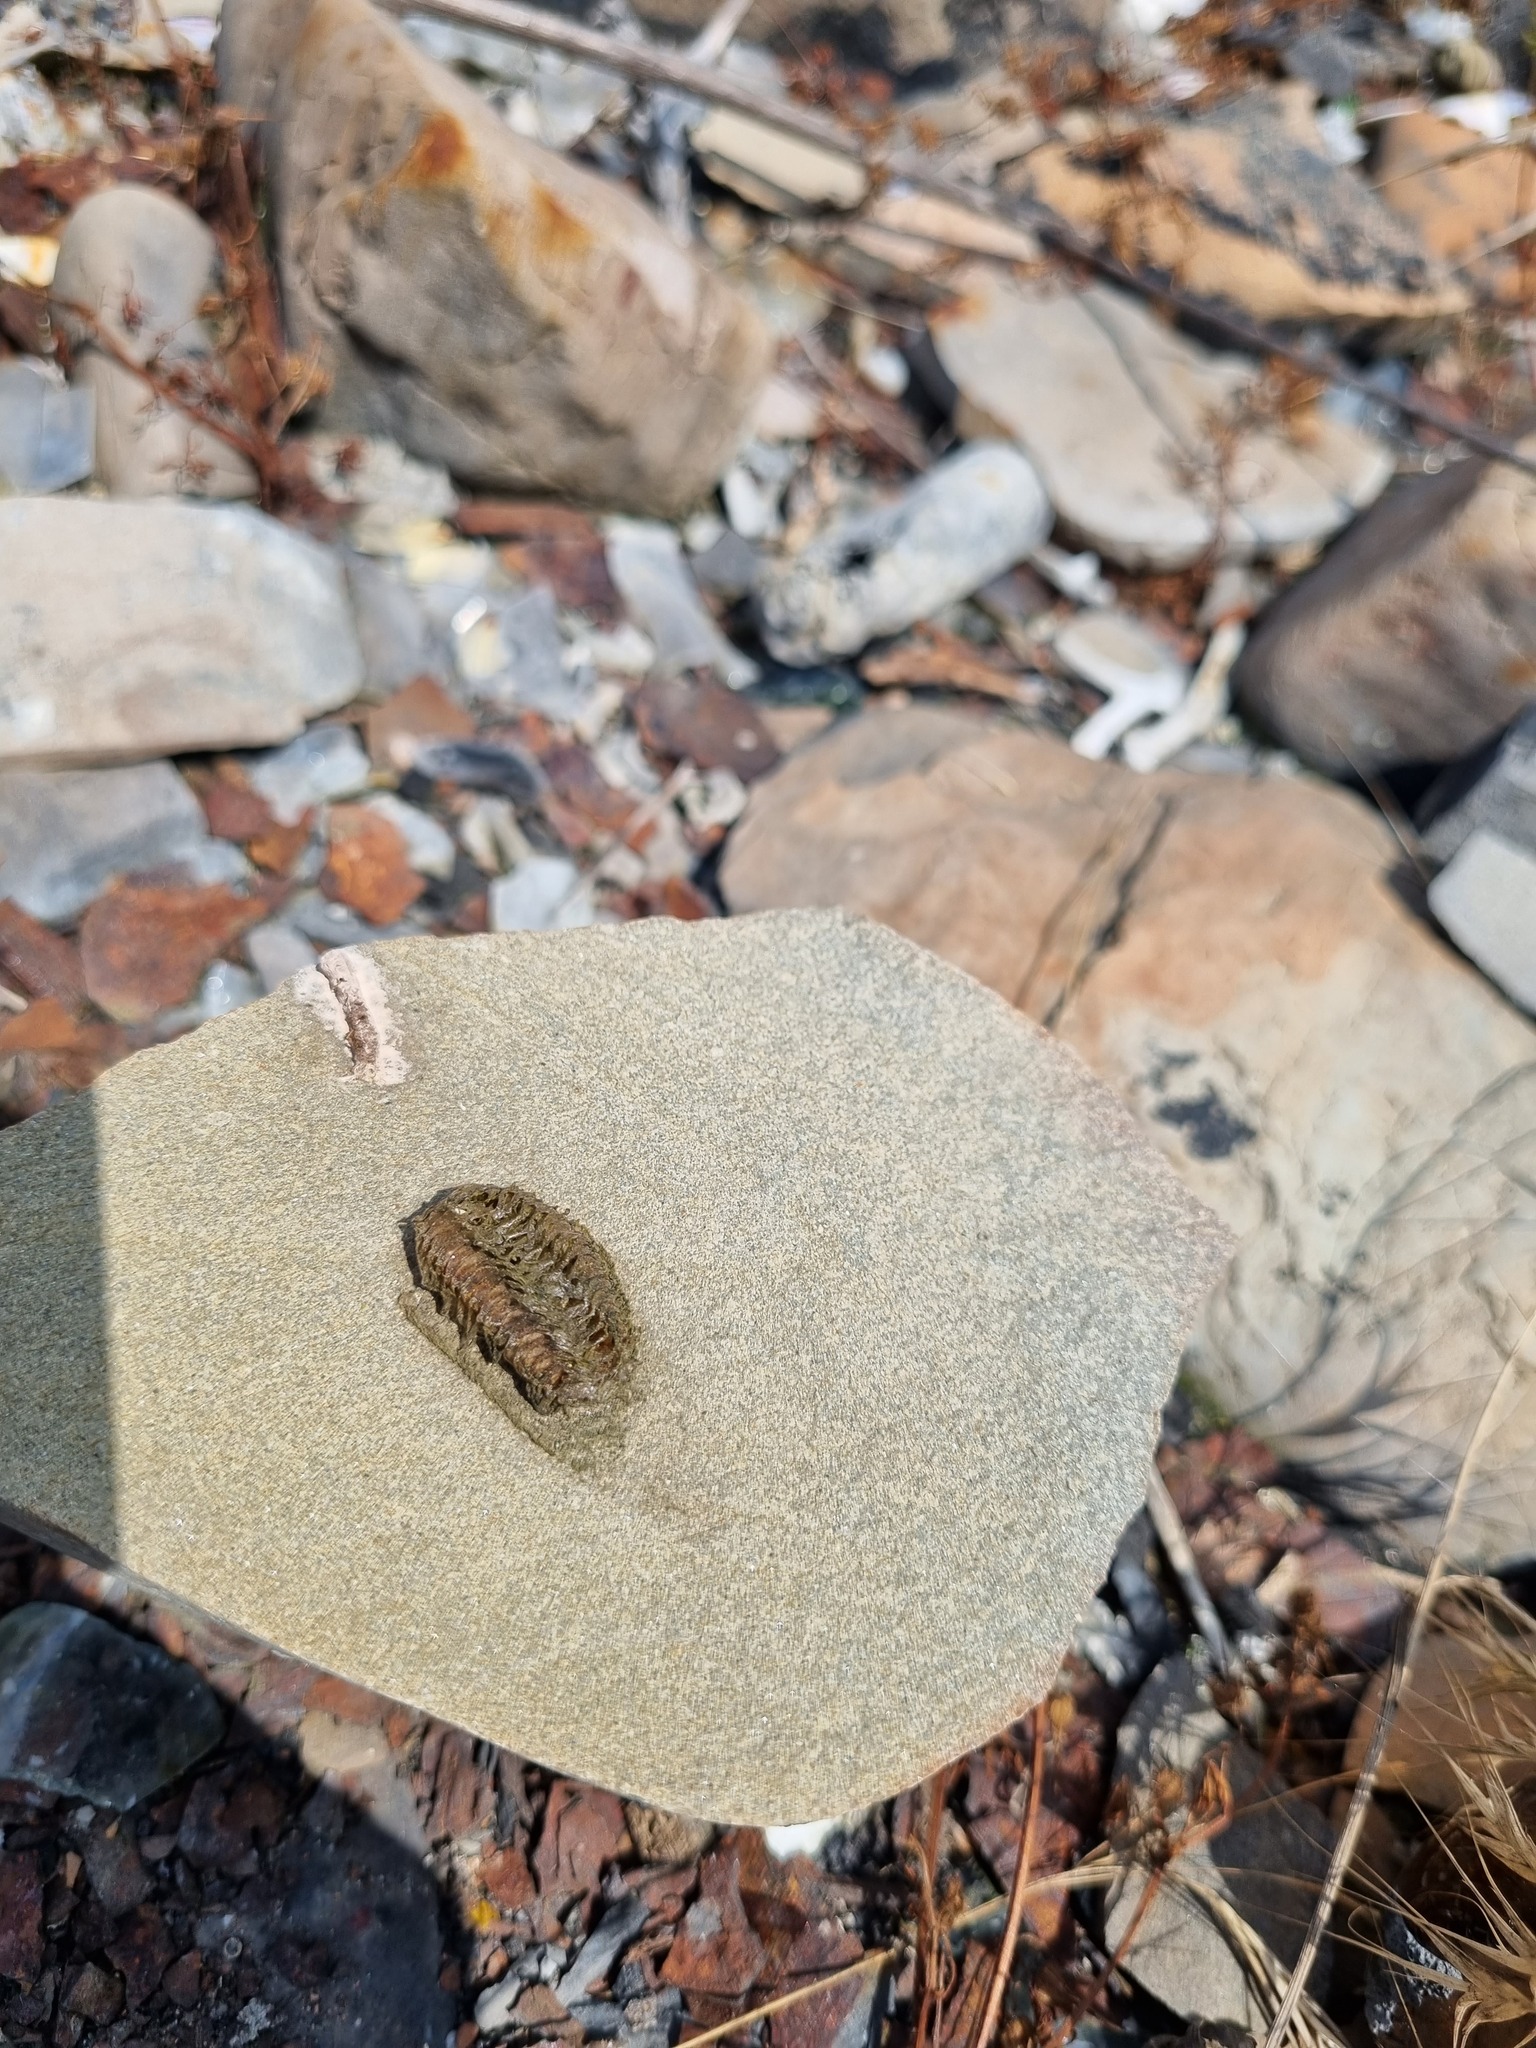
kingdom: Animalia
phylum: Arthropoda
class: Insecta
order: Mantodea
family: Mantidae
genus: Mantis
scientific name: Mantis religiosa
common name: Praying mantis
